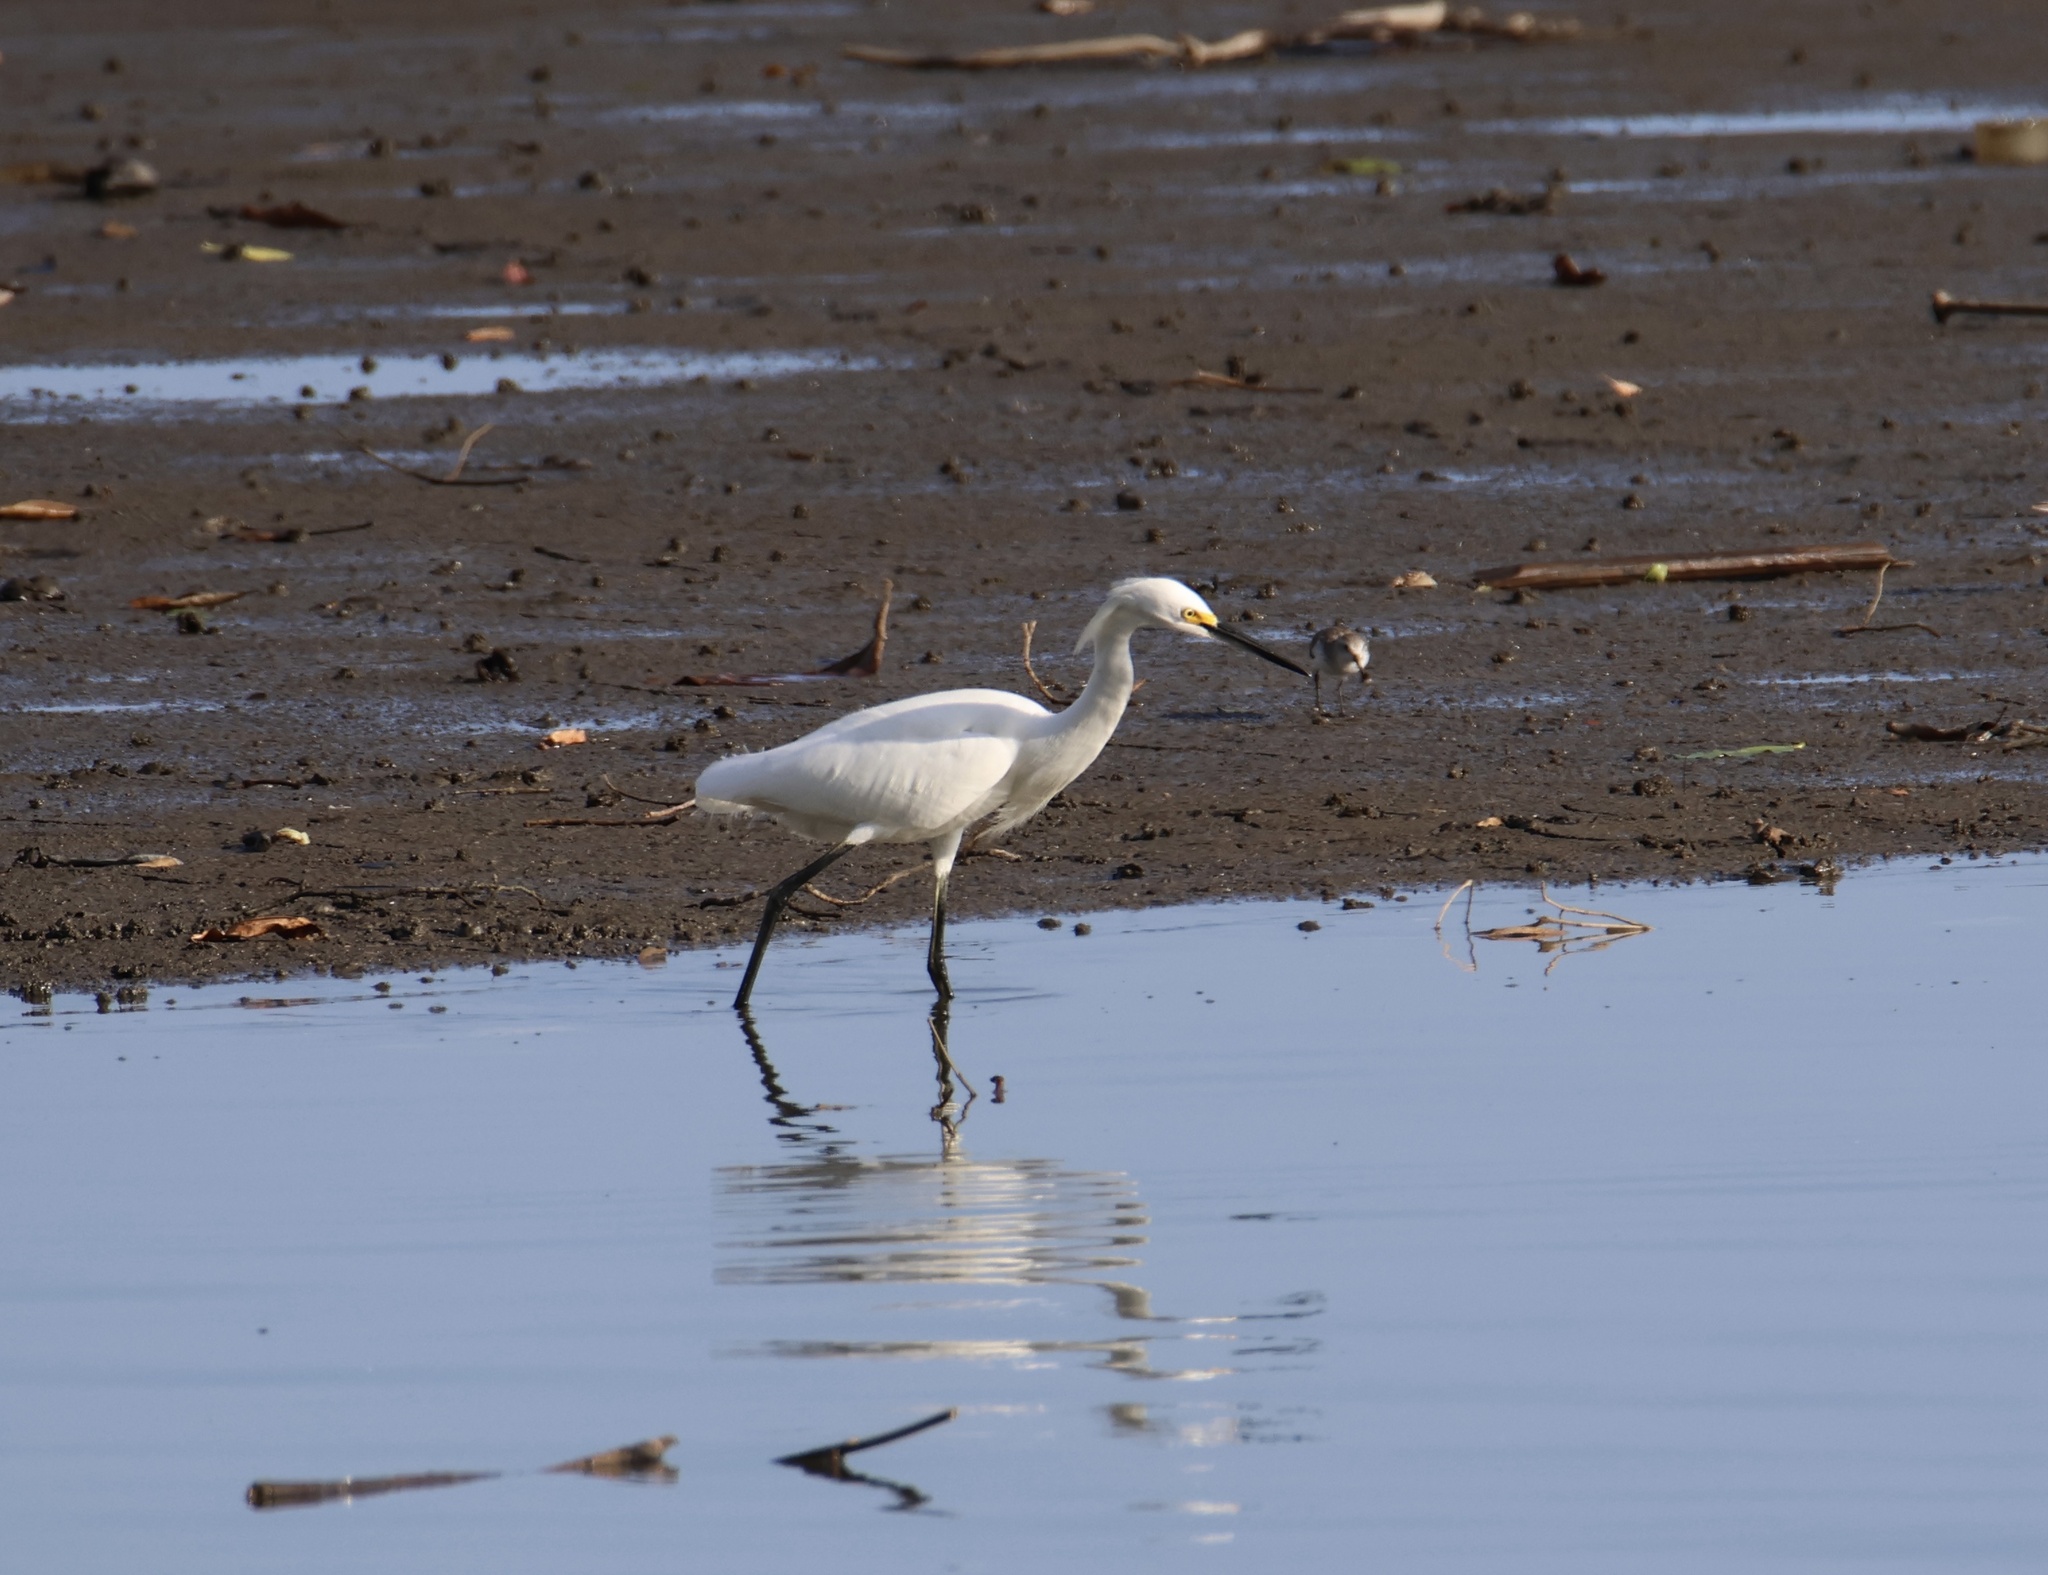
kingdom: Animalia
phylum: Chordata
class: Aves
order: Pelecaniformes
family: Ardeidae
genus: Egretta
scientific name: Egretta thula
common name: Snowy egret
